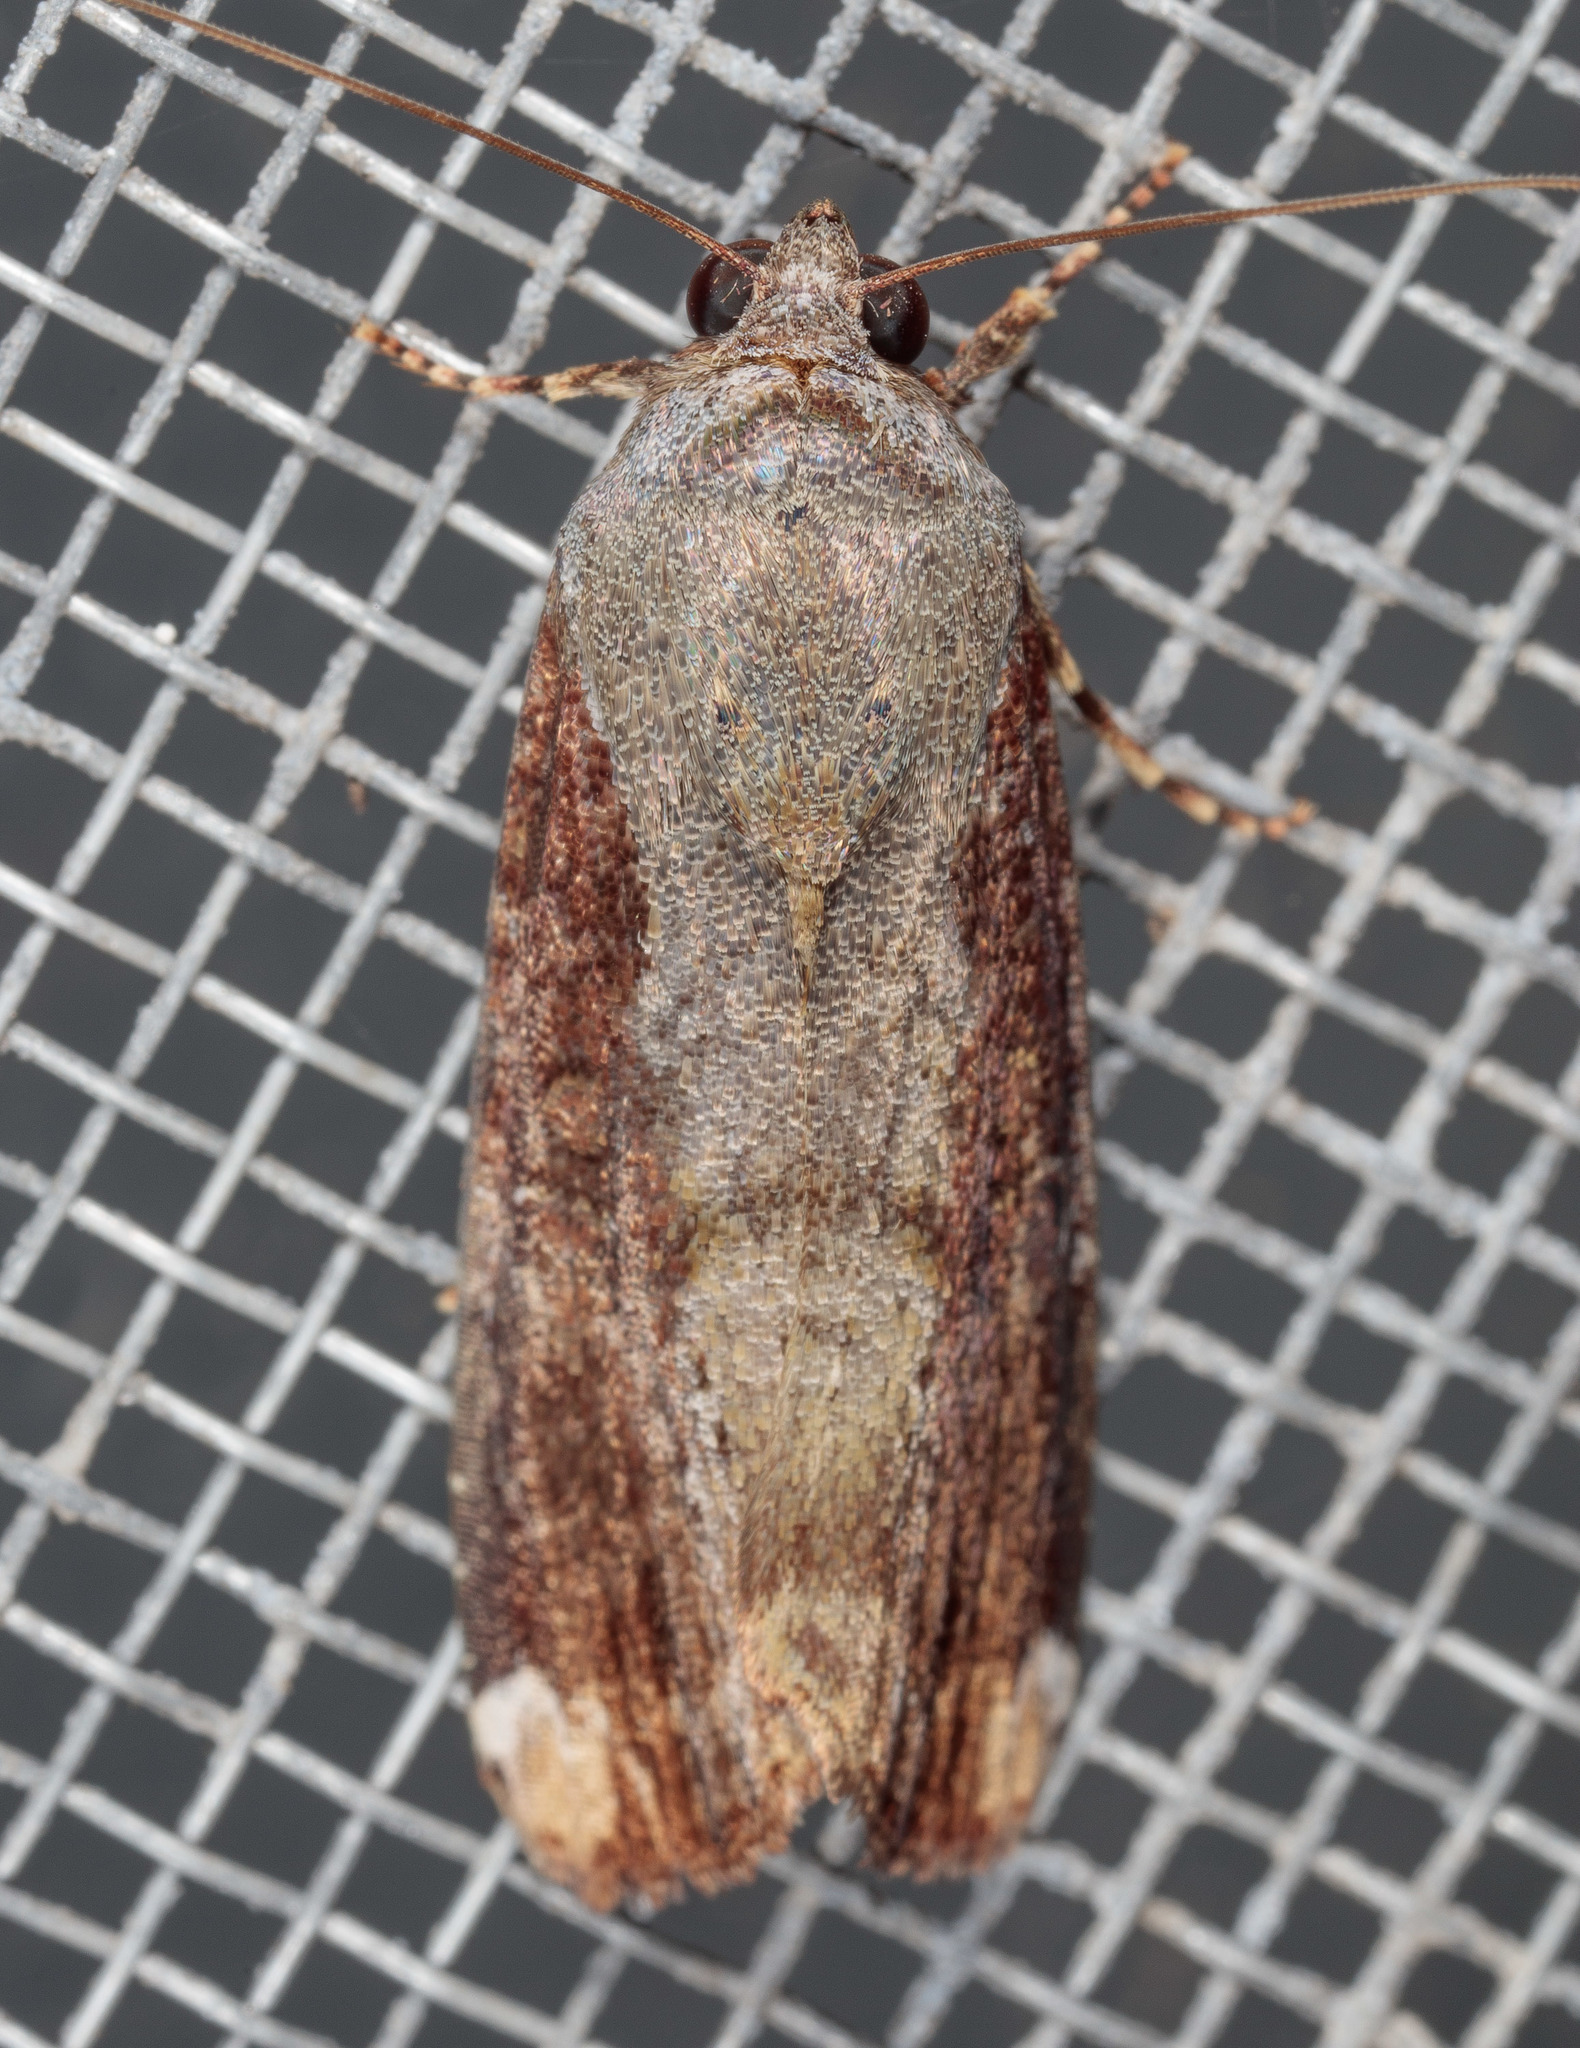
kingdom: Animalia
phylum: Arthropoda
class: Insecta
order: Lepidoptera
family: Noctuidae
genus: Magusa
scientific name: Magusa divaricata
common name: Orb narrow-winged moth
